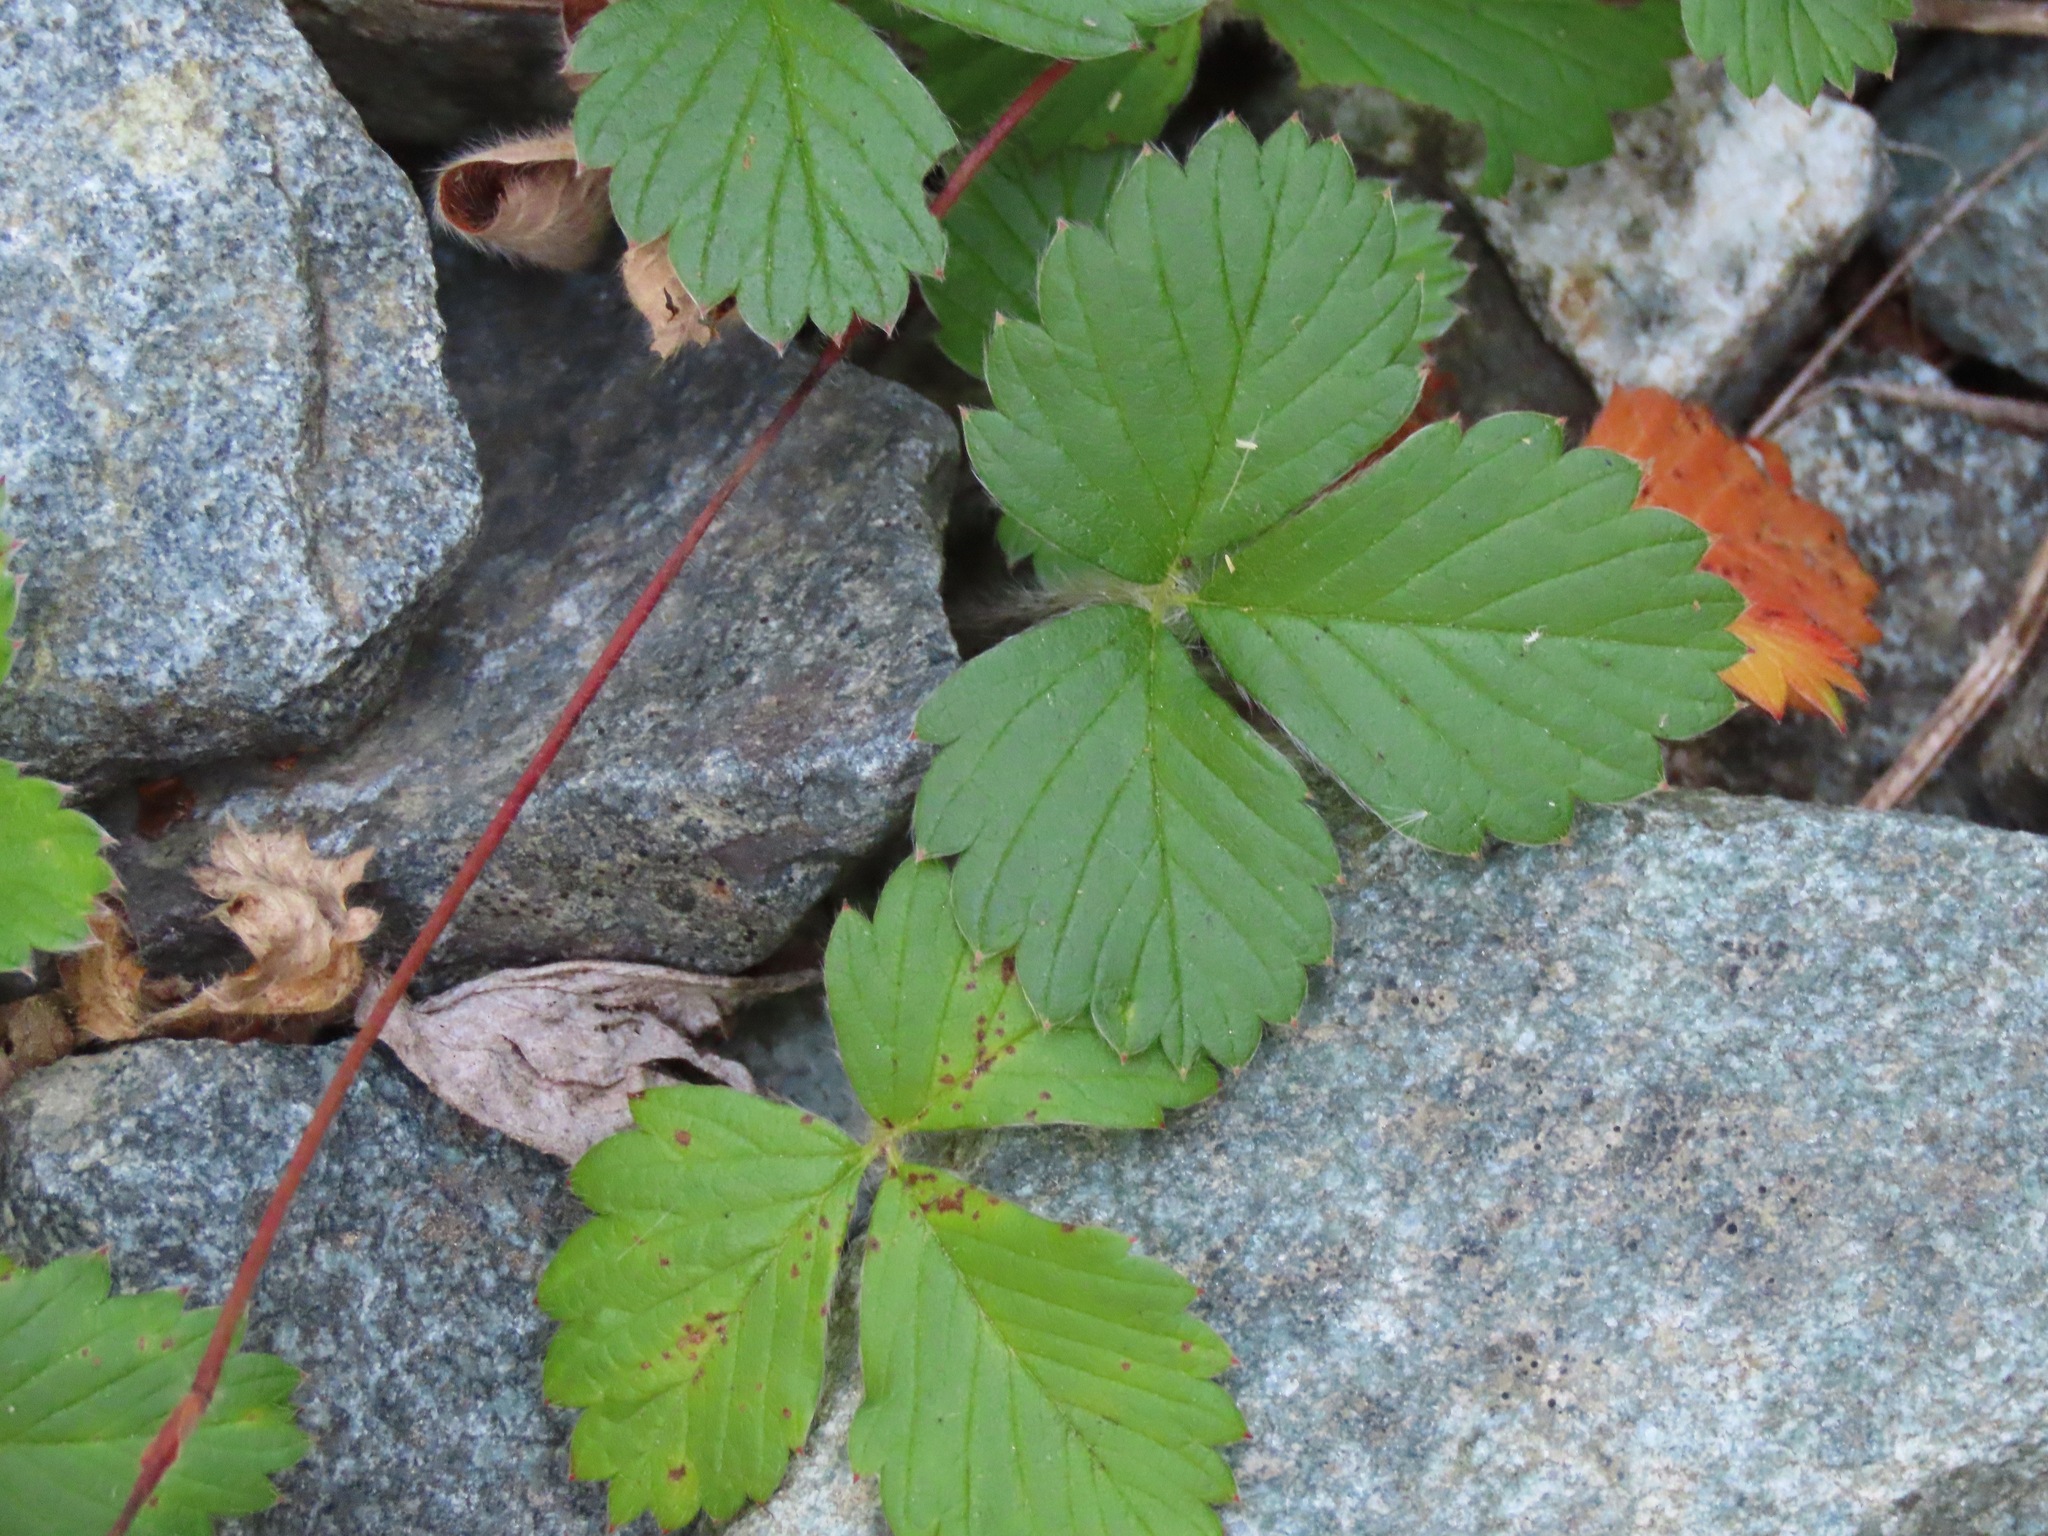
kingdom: Plantae
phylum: Tracheophyta
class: Magnoliopsida
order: Rosales
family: Rosaceae
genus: Fragaria
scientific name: Fragaria vesca
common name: Wild strawberry
